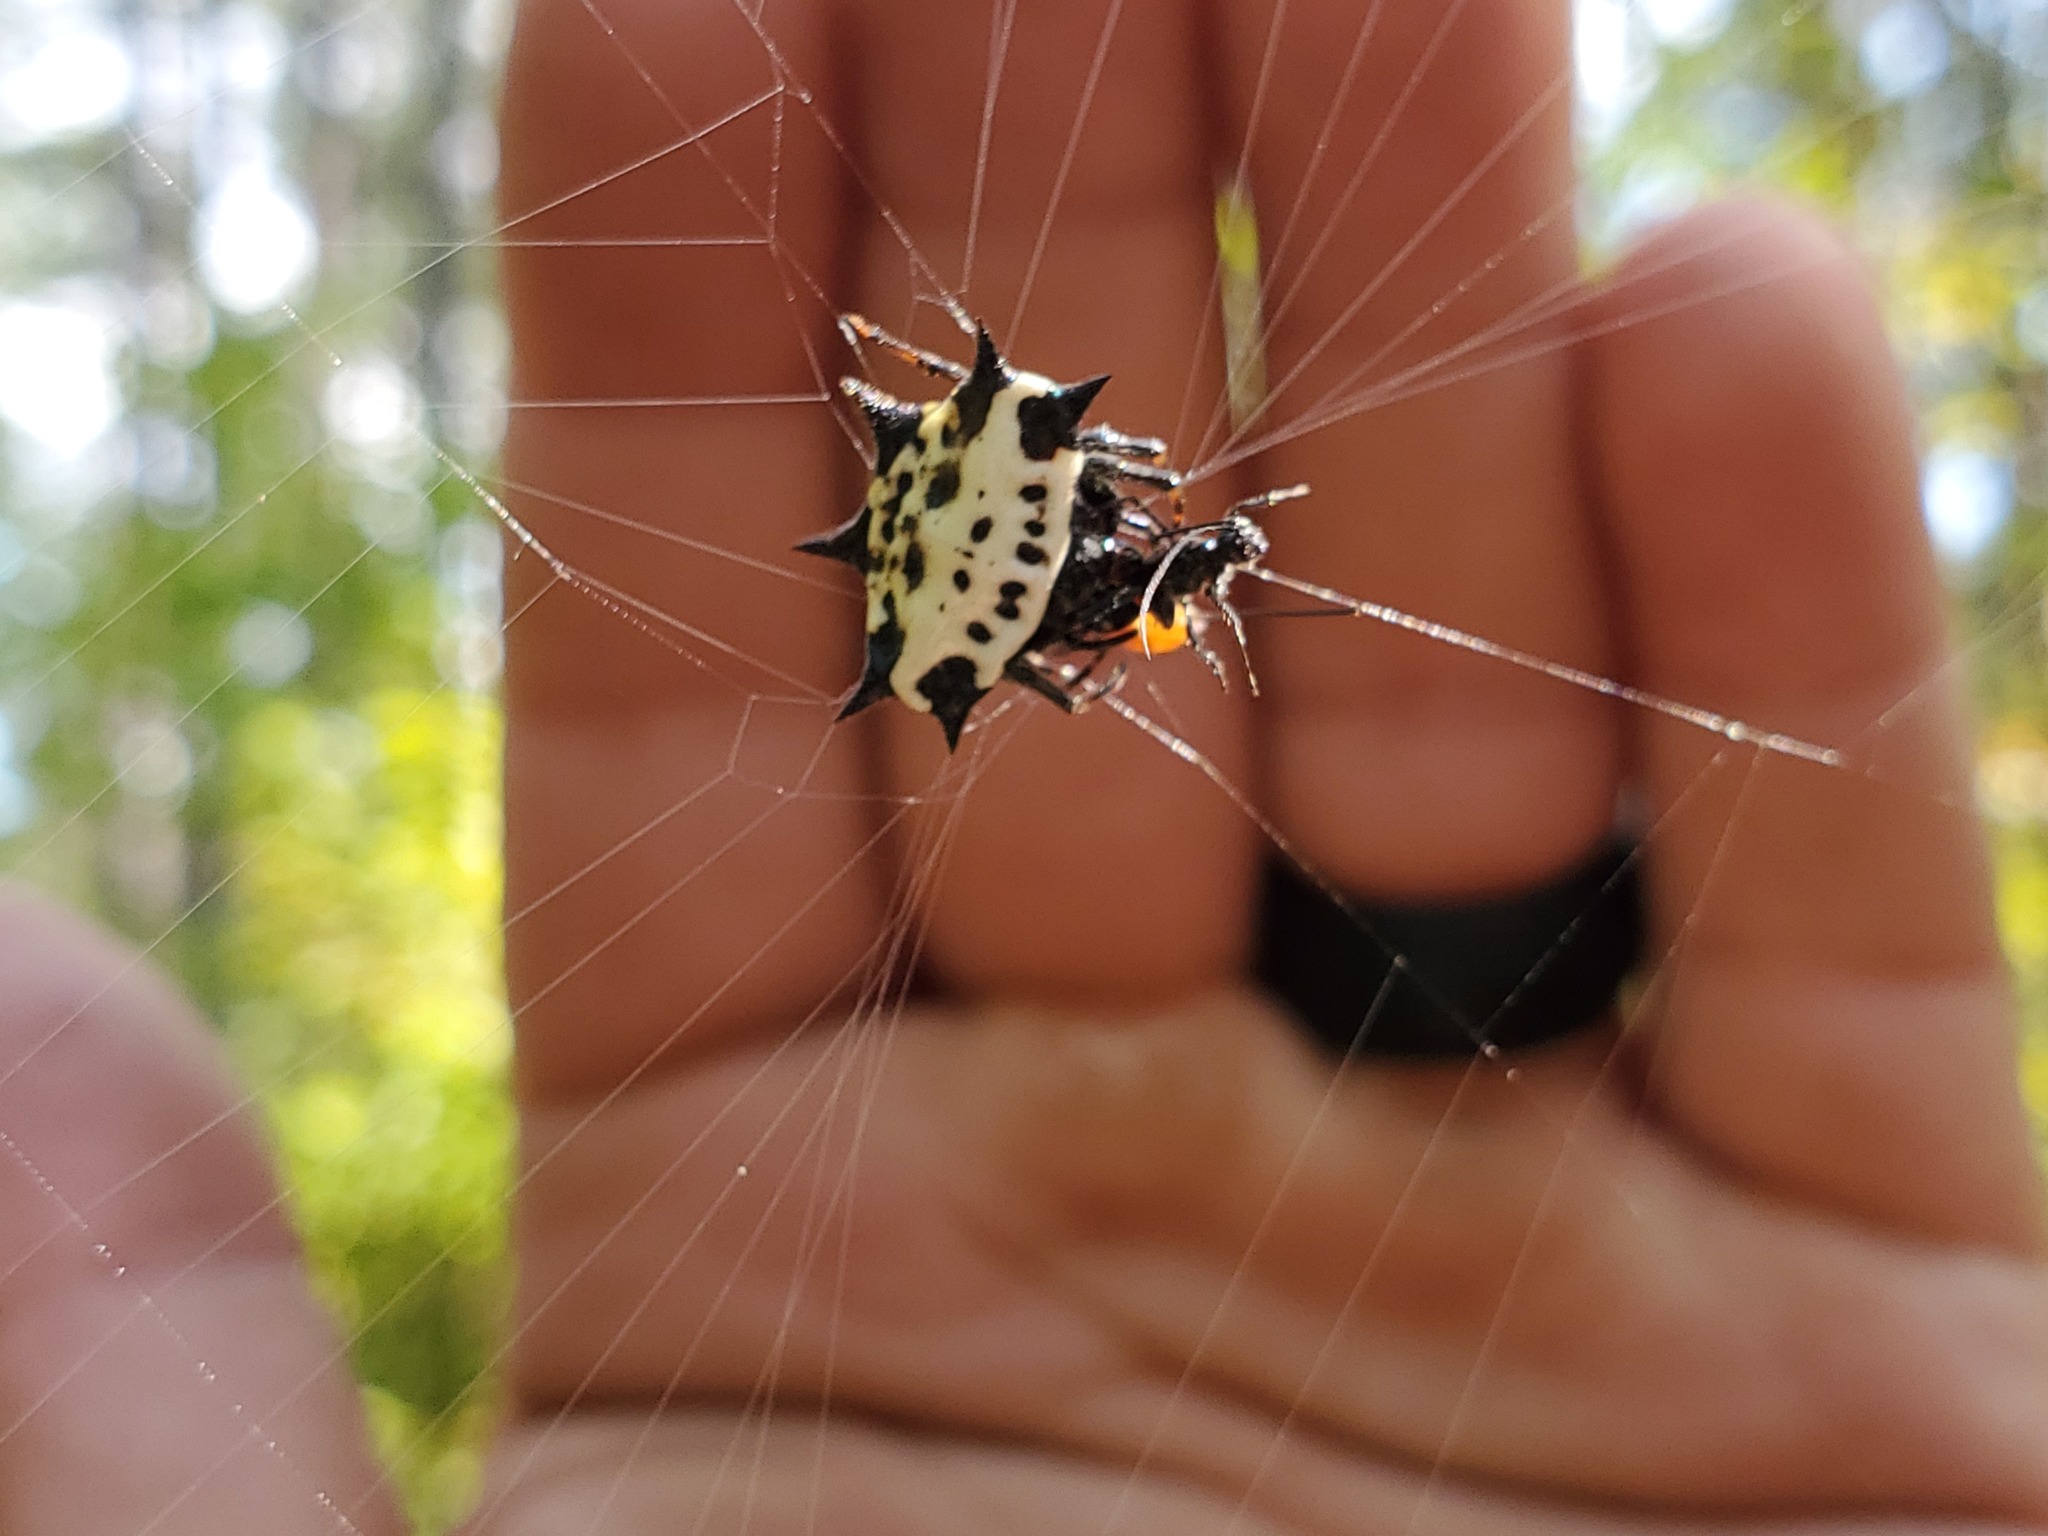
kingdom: Animalia
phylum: Arthropoda
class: Arachnida
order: Araneae
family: Araneidae
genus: Gasteracantha
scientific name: Gasteracantha cancriformis
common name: Orb weavers
